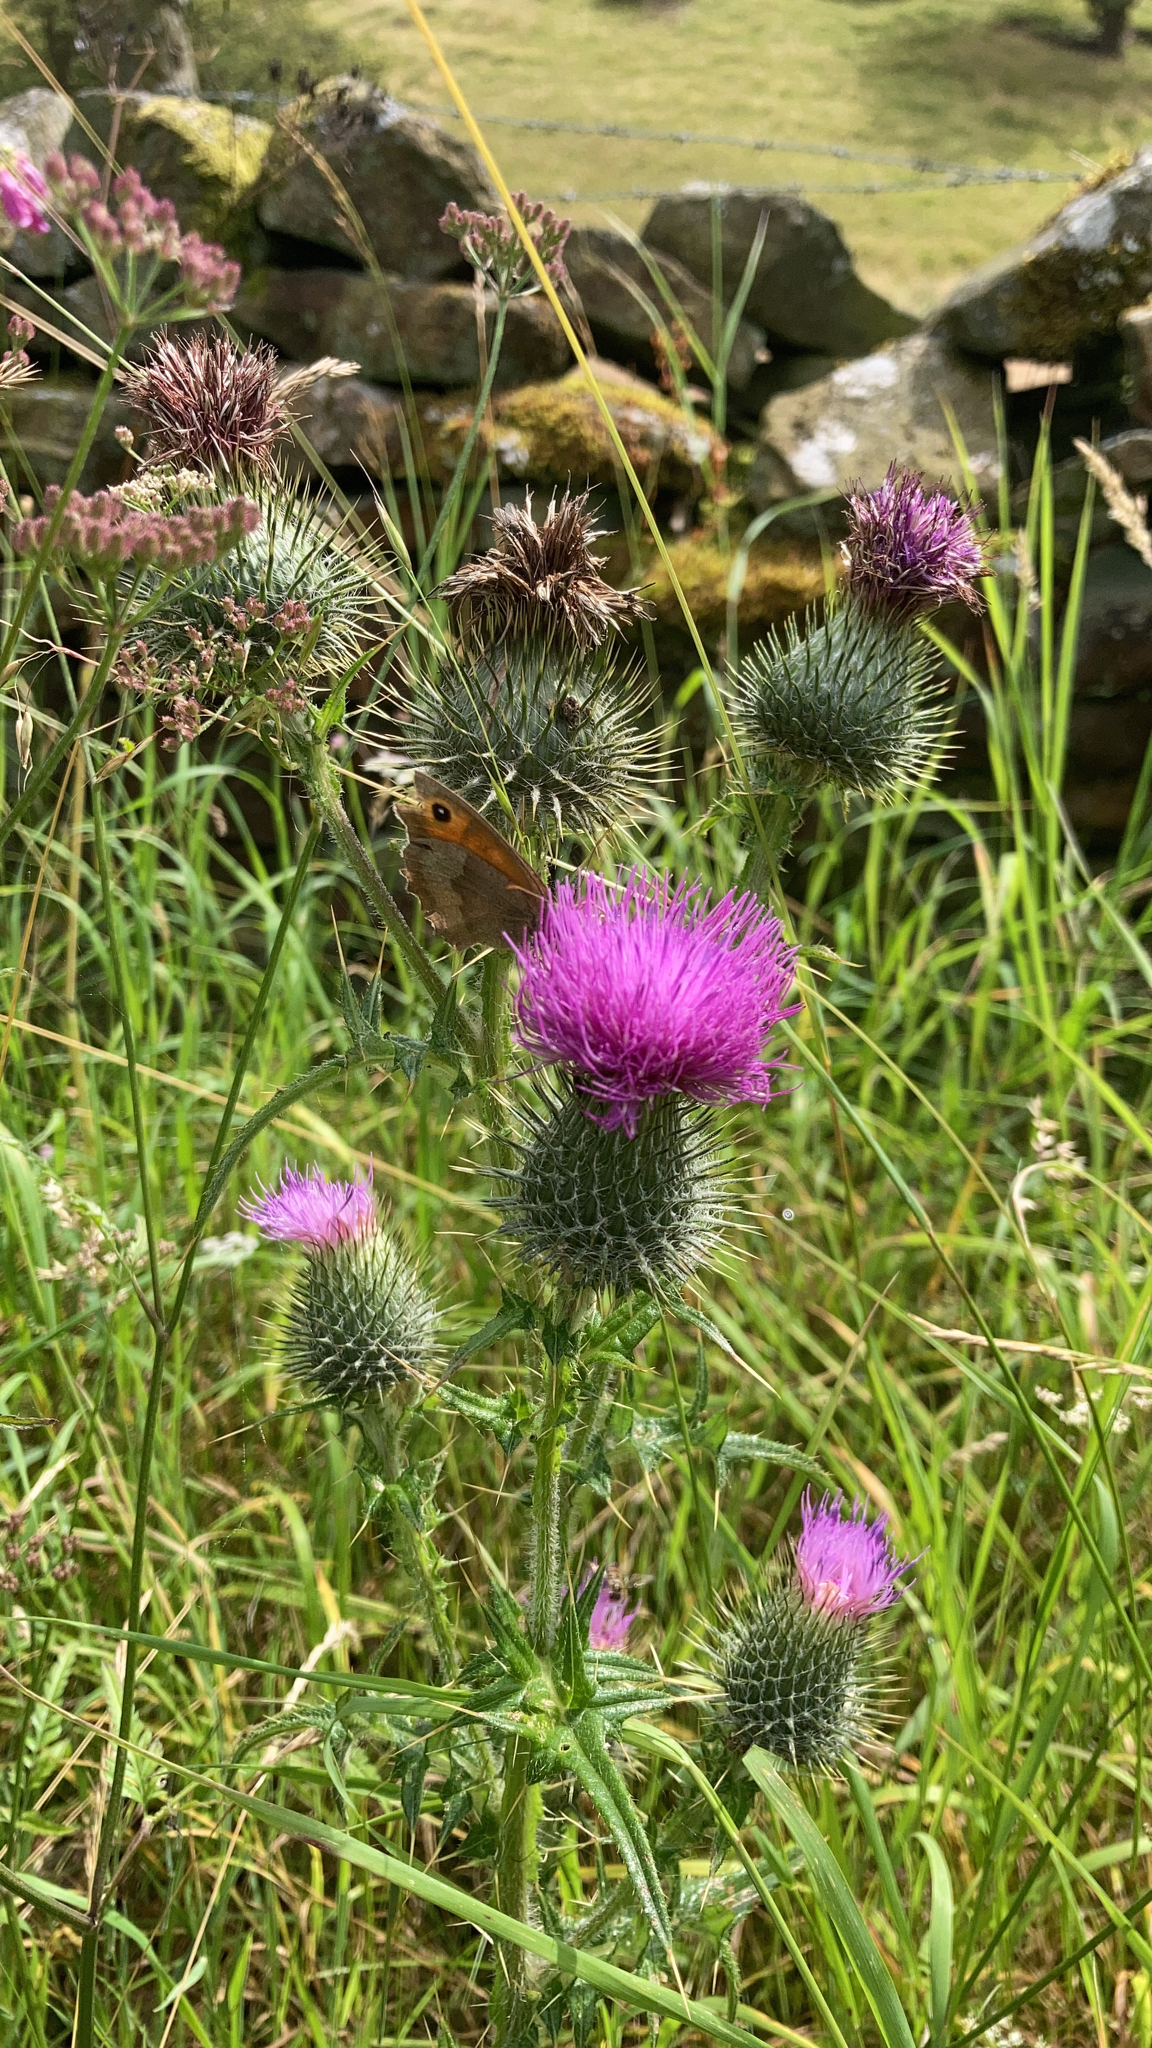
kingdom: Animalia
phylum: Arthropoda
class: Insecta
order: Lepidoptera
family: Nymphalidae
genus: Maniola
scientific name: Maniola jurtina
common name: Meadow brown
